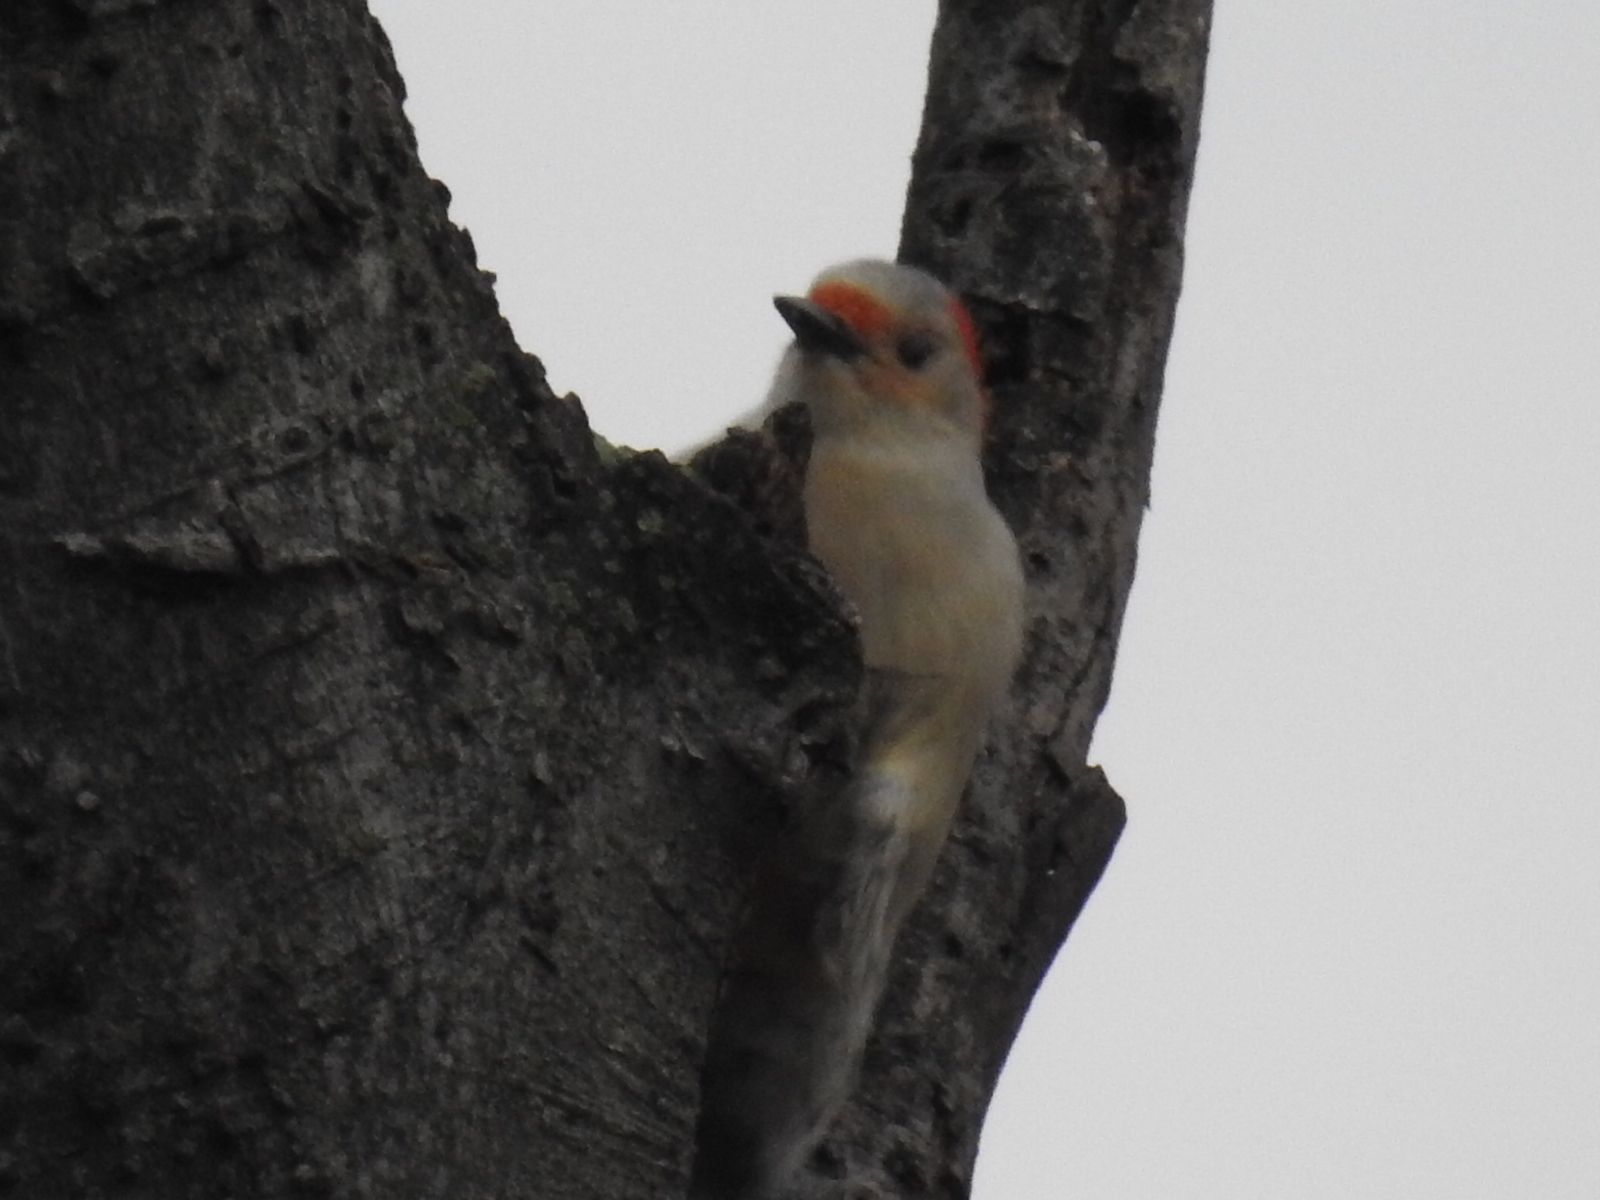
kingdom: Animalia
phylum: Chordata
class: Aves
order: Piciformes
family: Picidae
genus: Melanerpes
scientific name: Melanerpes carolinus
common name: Red-bellied woodpecker
